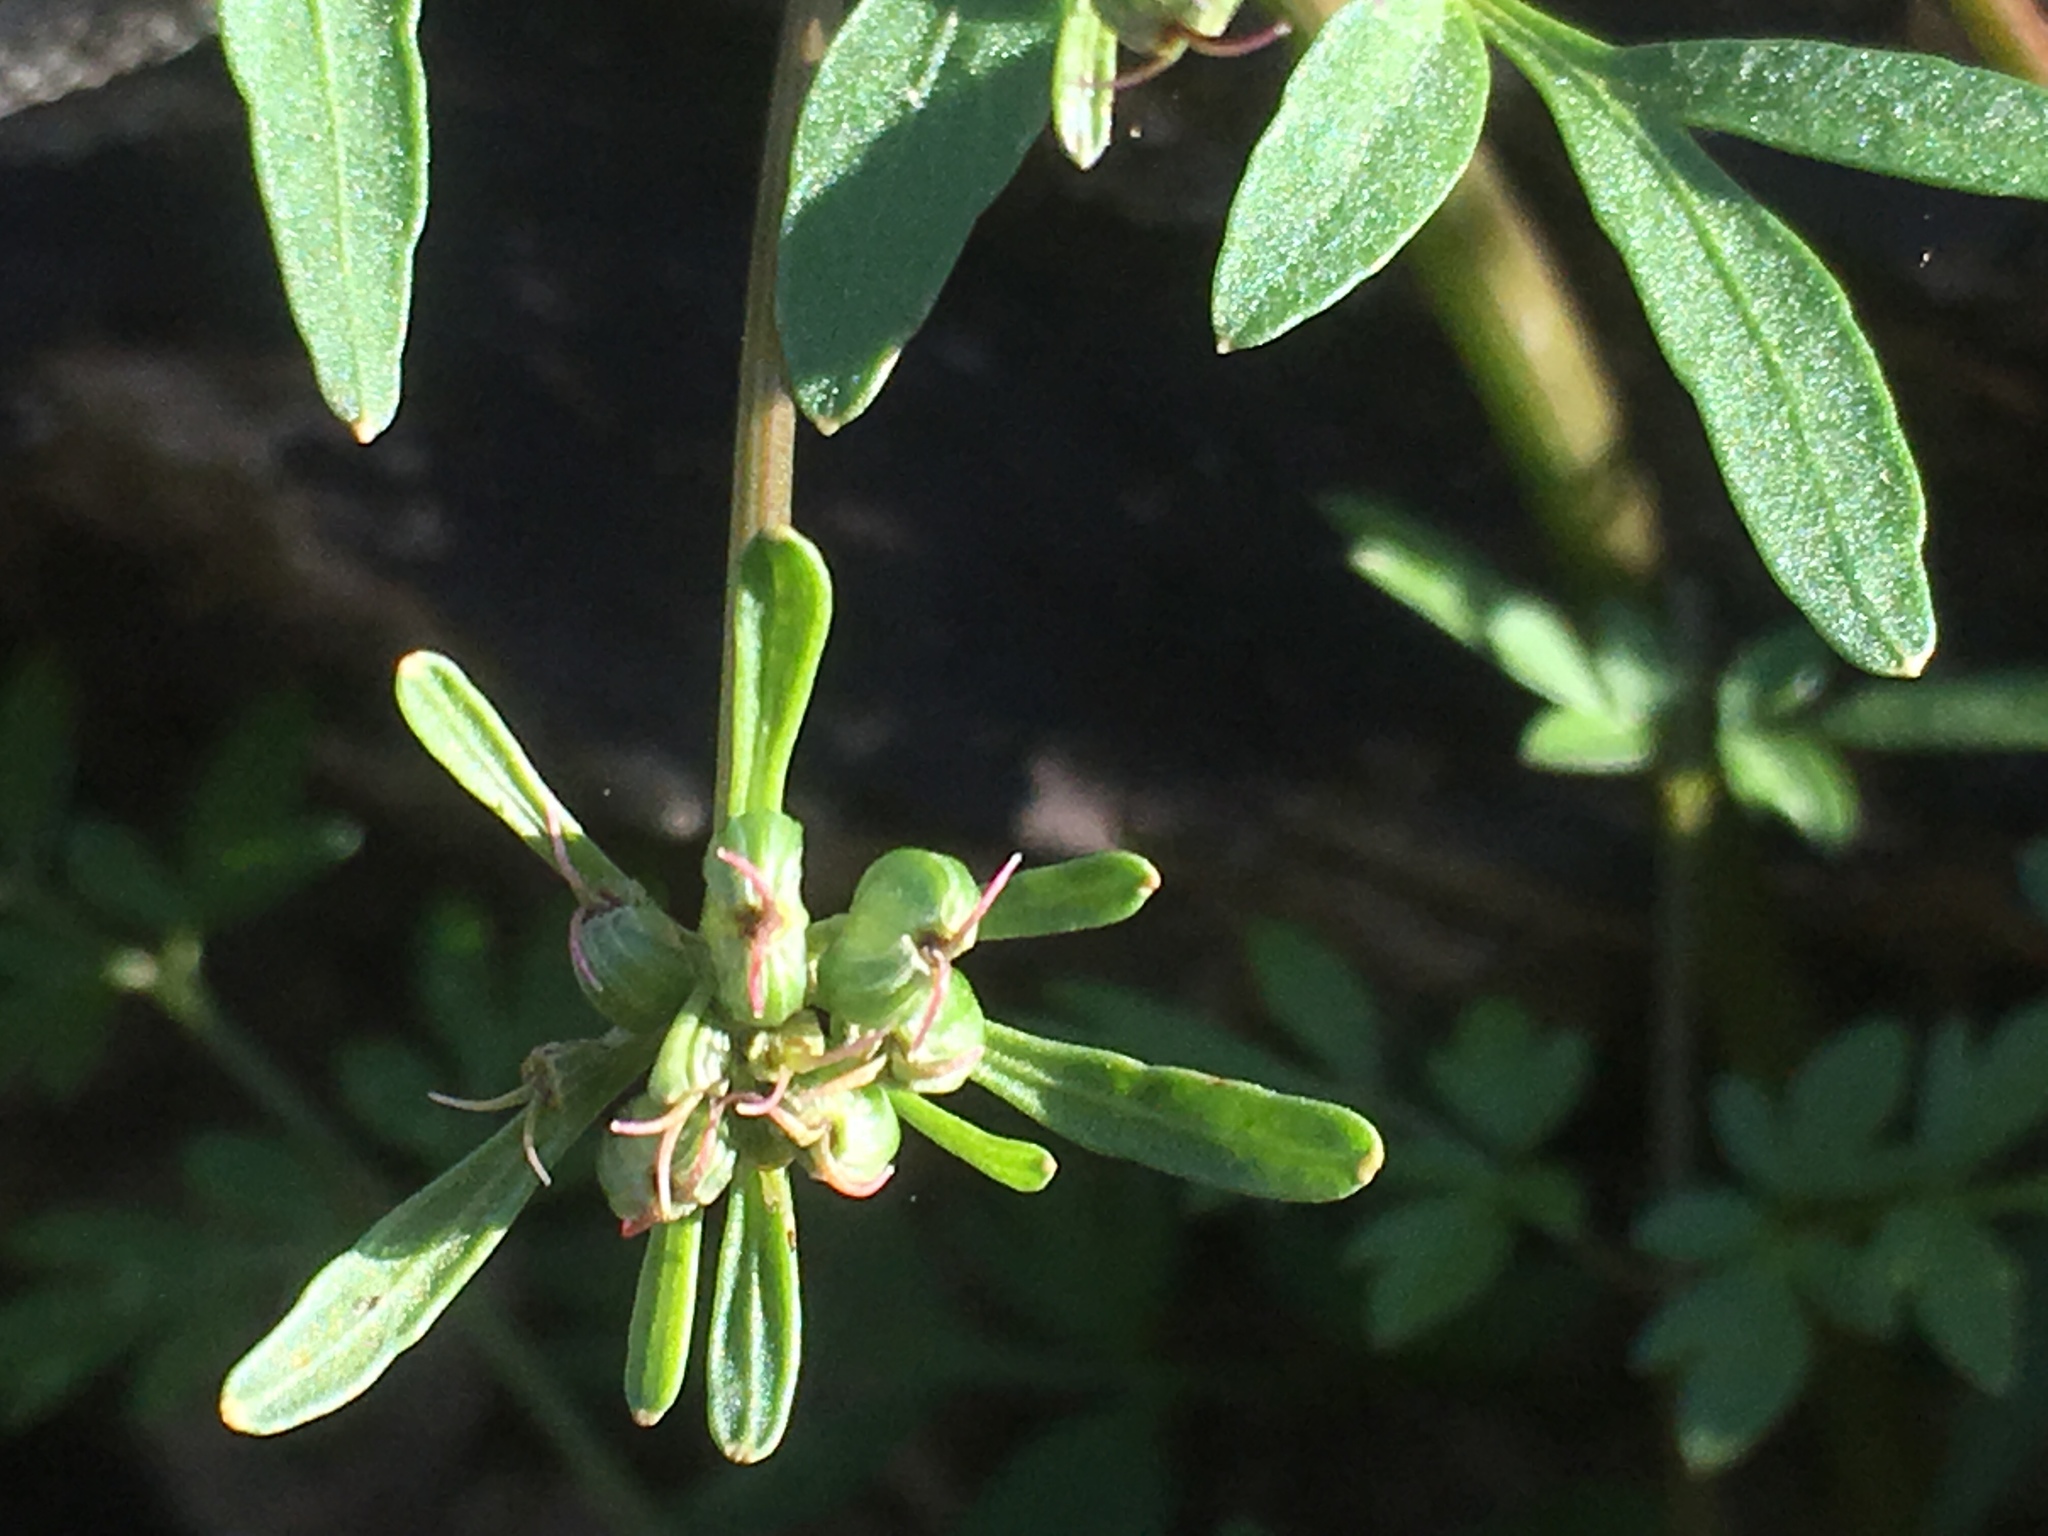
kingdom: Plantae
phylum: Tracheophyta
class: Magnoliopsida
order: Apiales
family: Apiaceae
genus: Erigenia
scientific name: Erigenia bulbosa
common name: Pepper-and-salt
